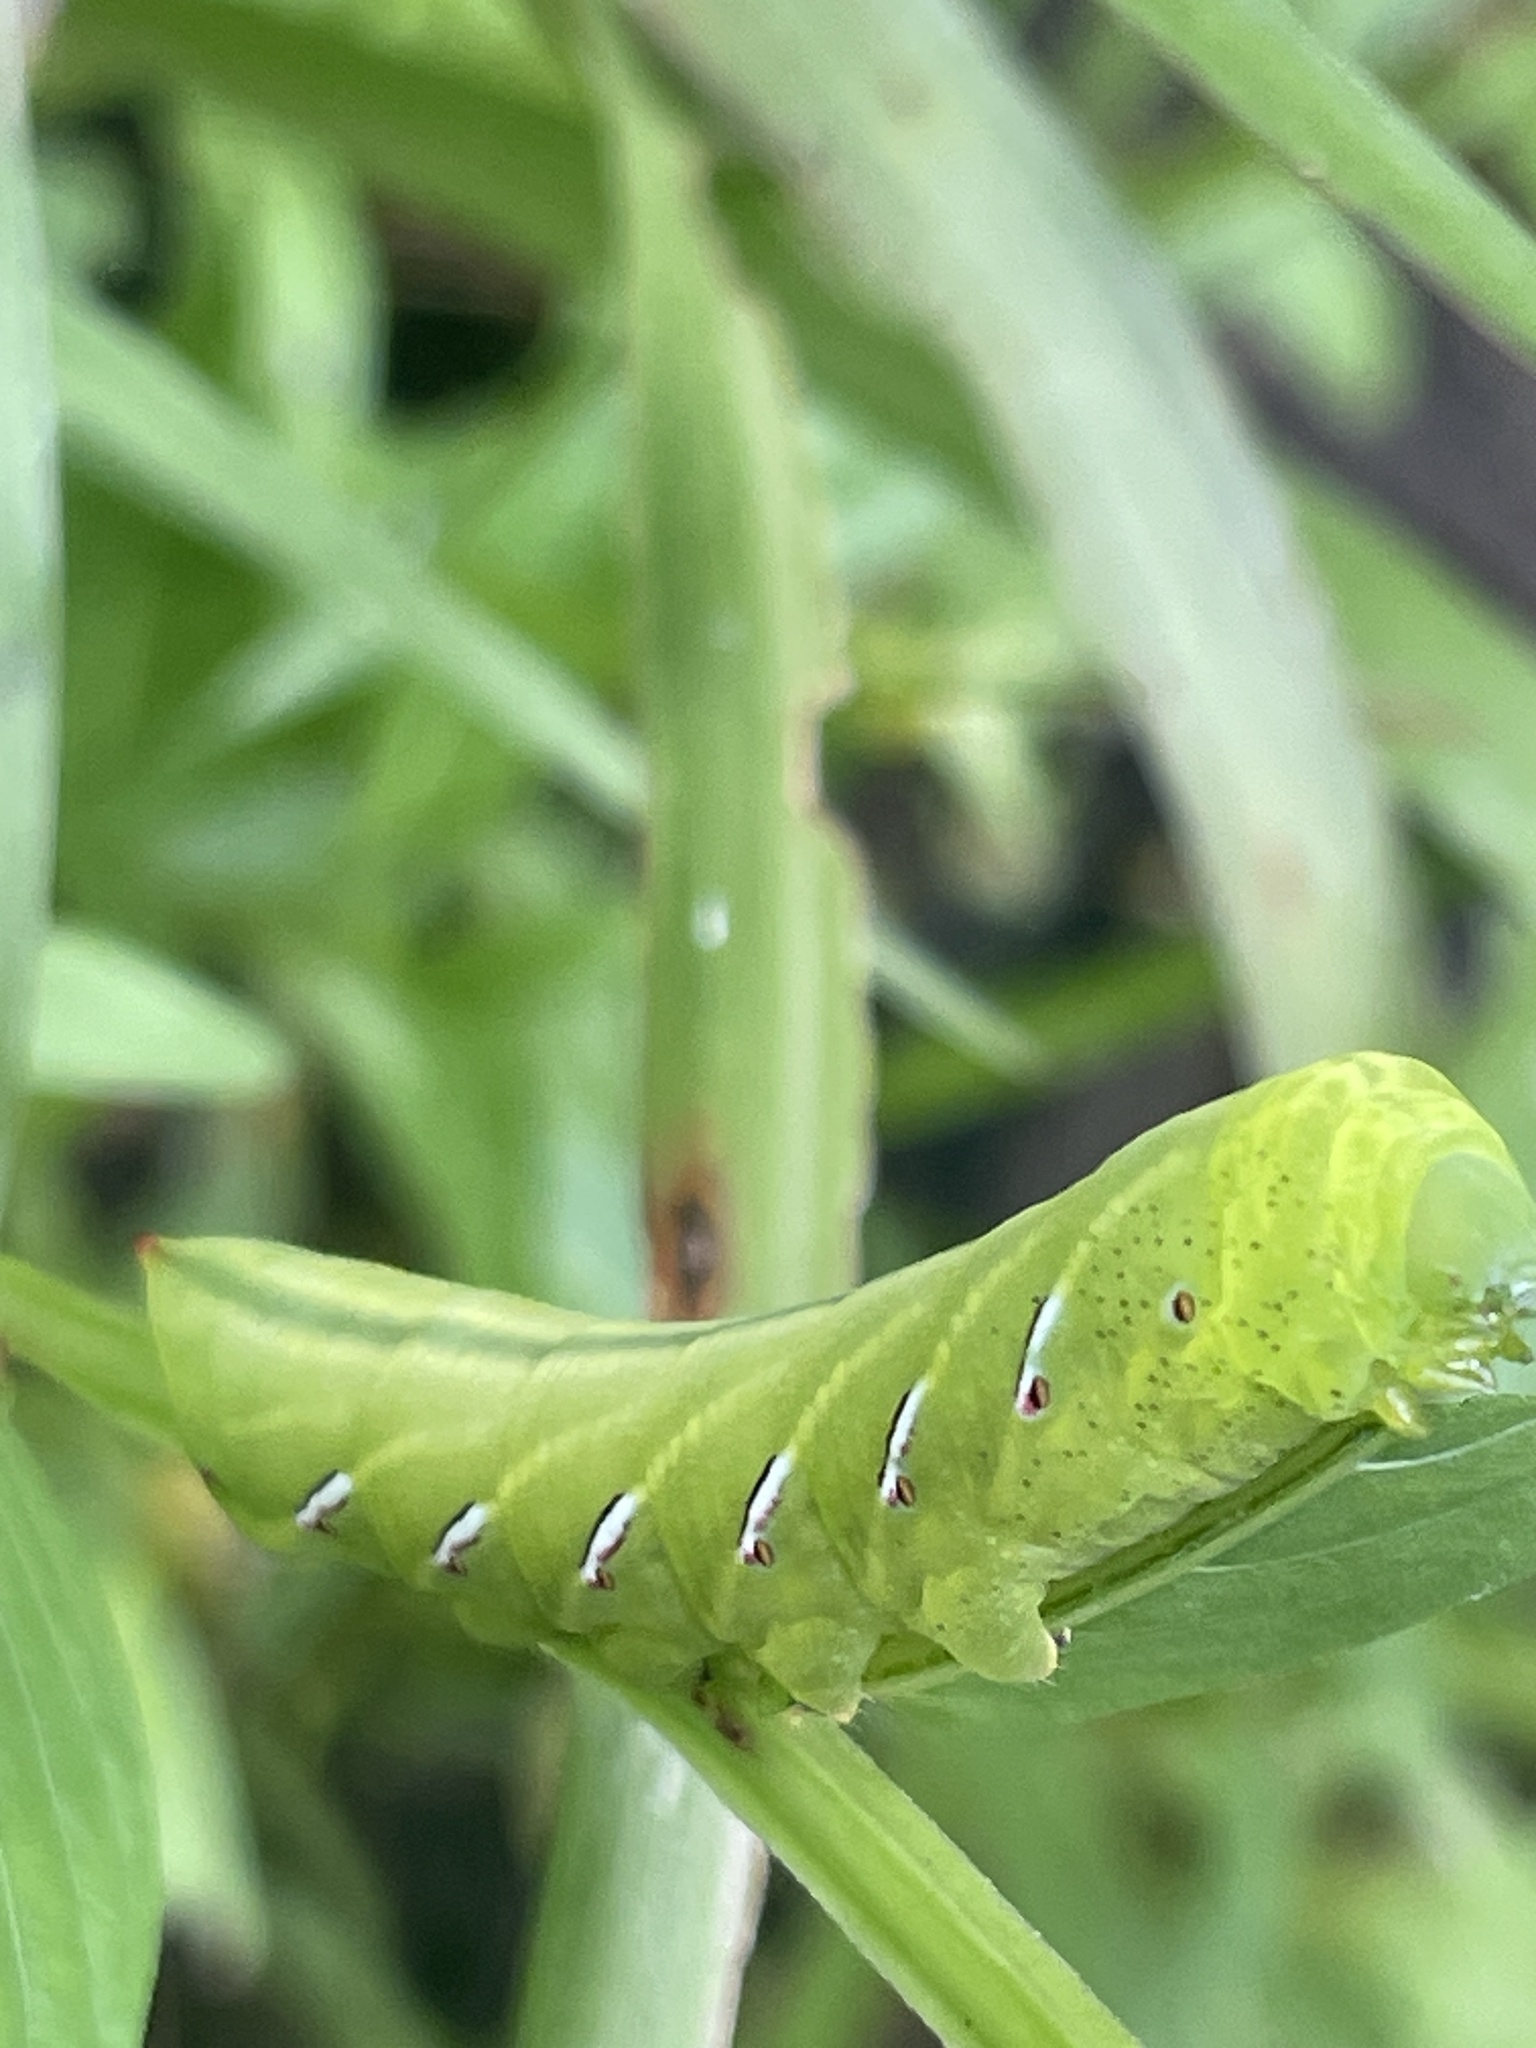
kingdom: Animalia
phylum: Arthropoda
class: Insecta
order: Lepidoptera
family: Sphingidae
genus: Eumorpha
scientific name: Eumorpha fasciatus
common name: Banded sphinx
